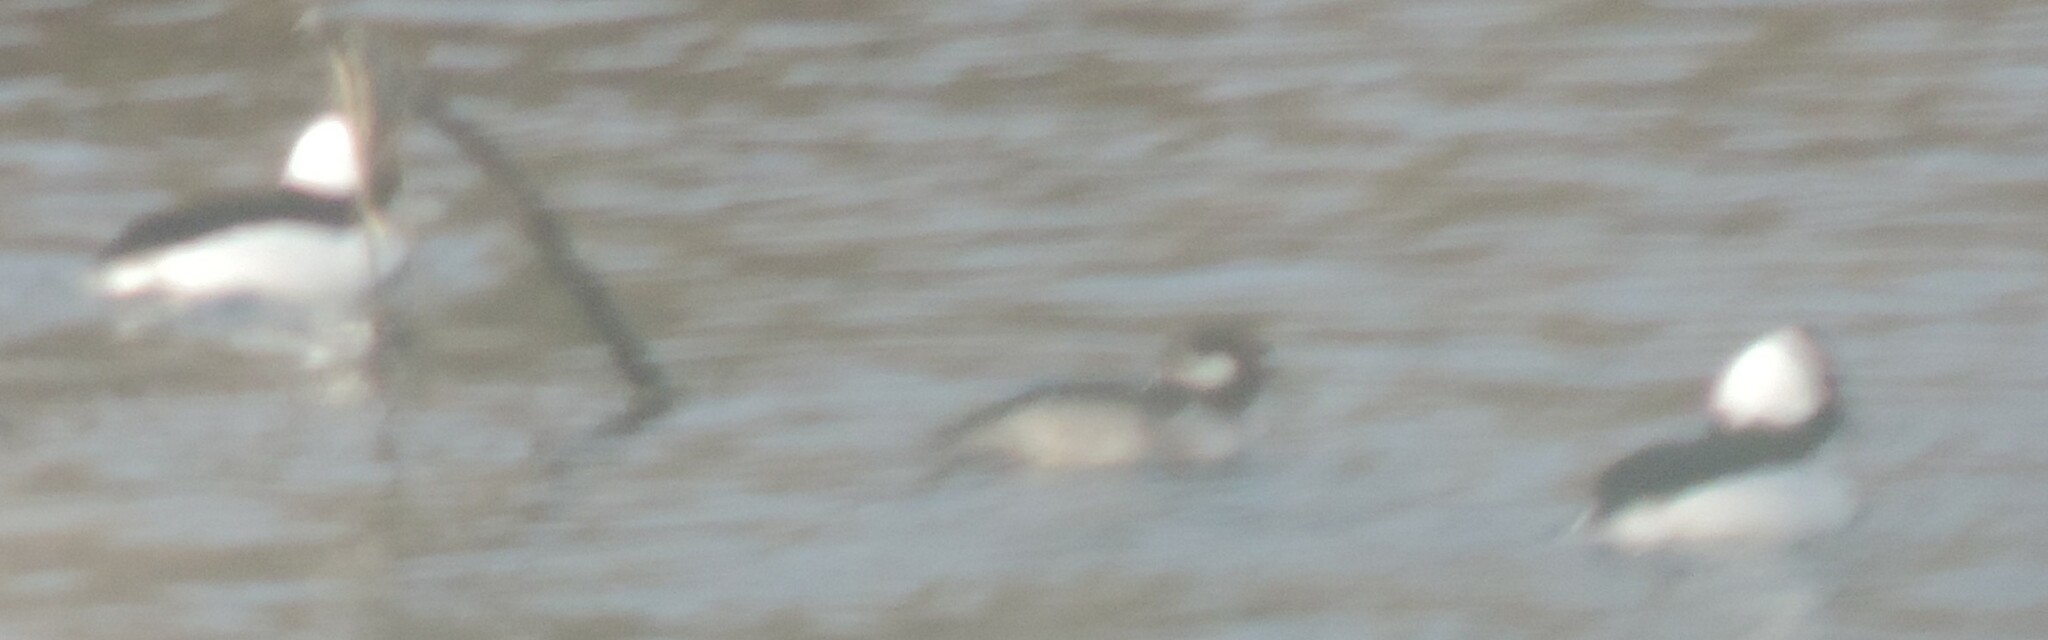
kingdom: Animalia
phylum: Chordata
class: Aves
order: Anseriformes
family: Anatidae
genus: Bucephala
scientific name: Bucephala albeola
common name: Bufflehead
